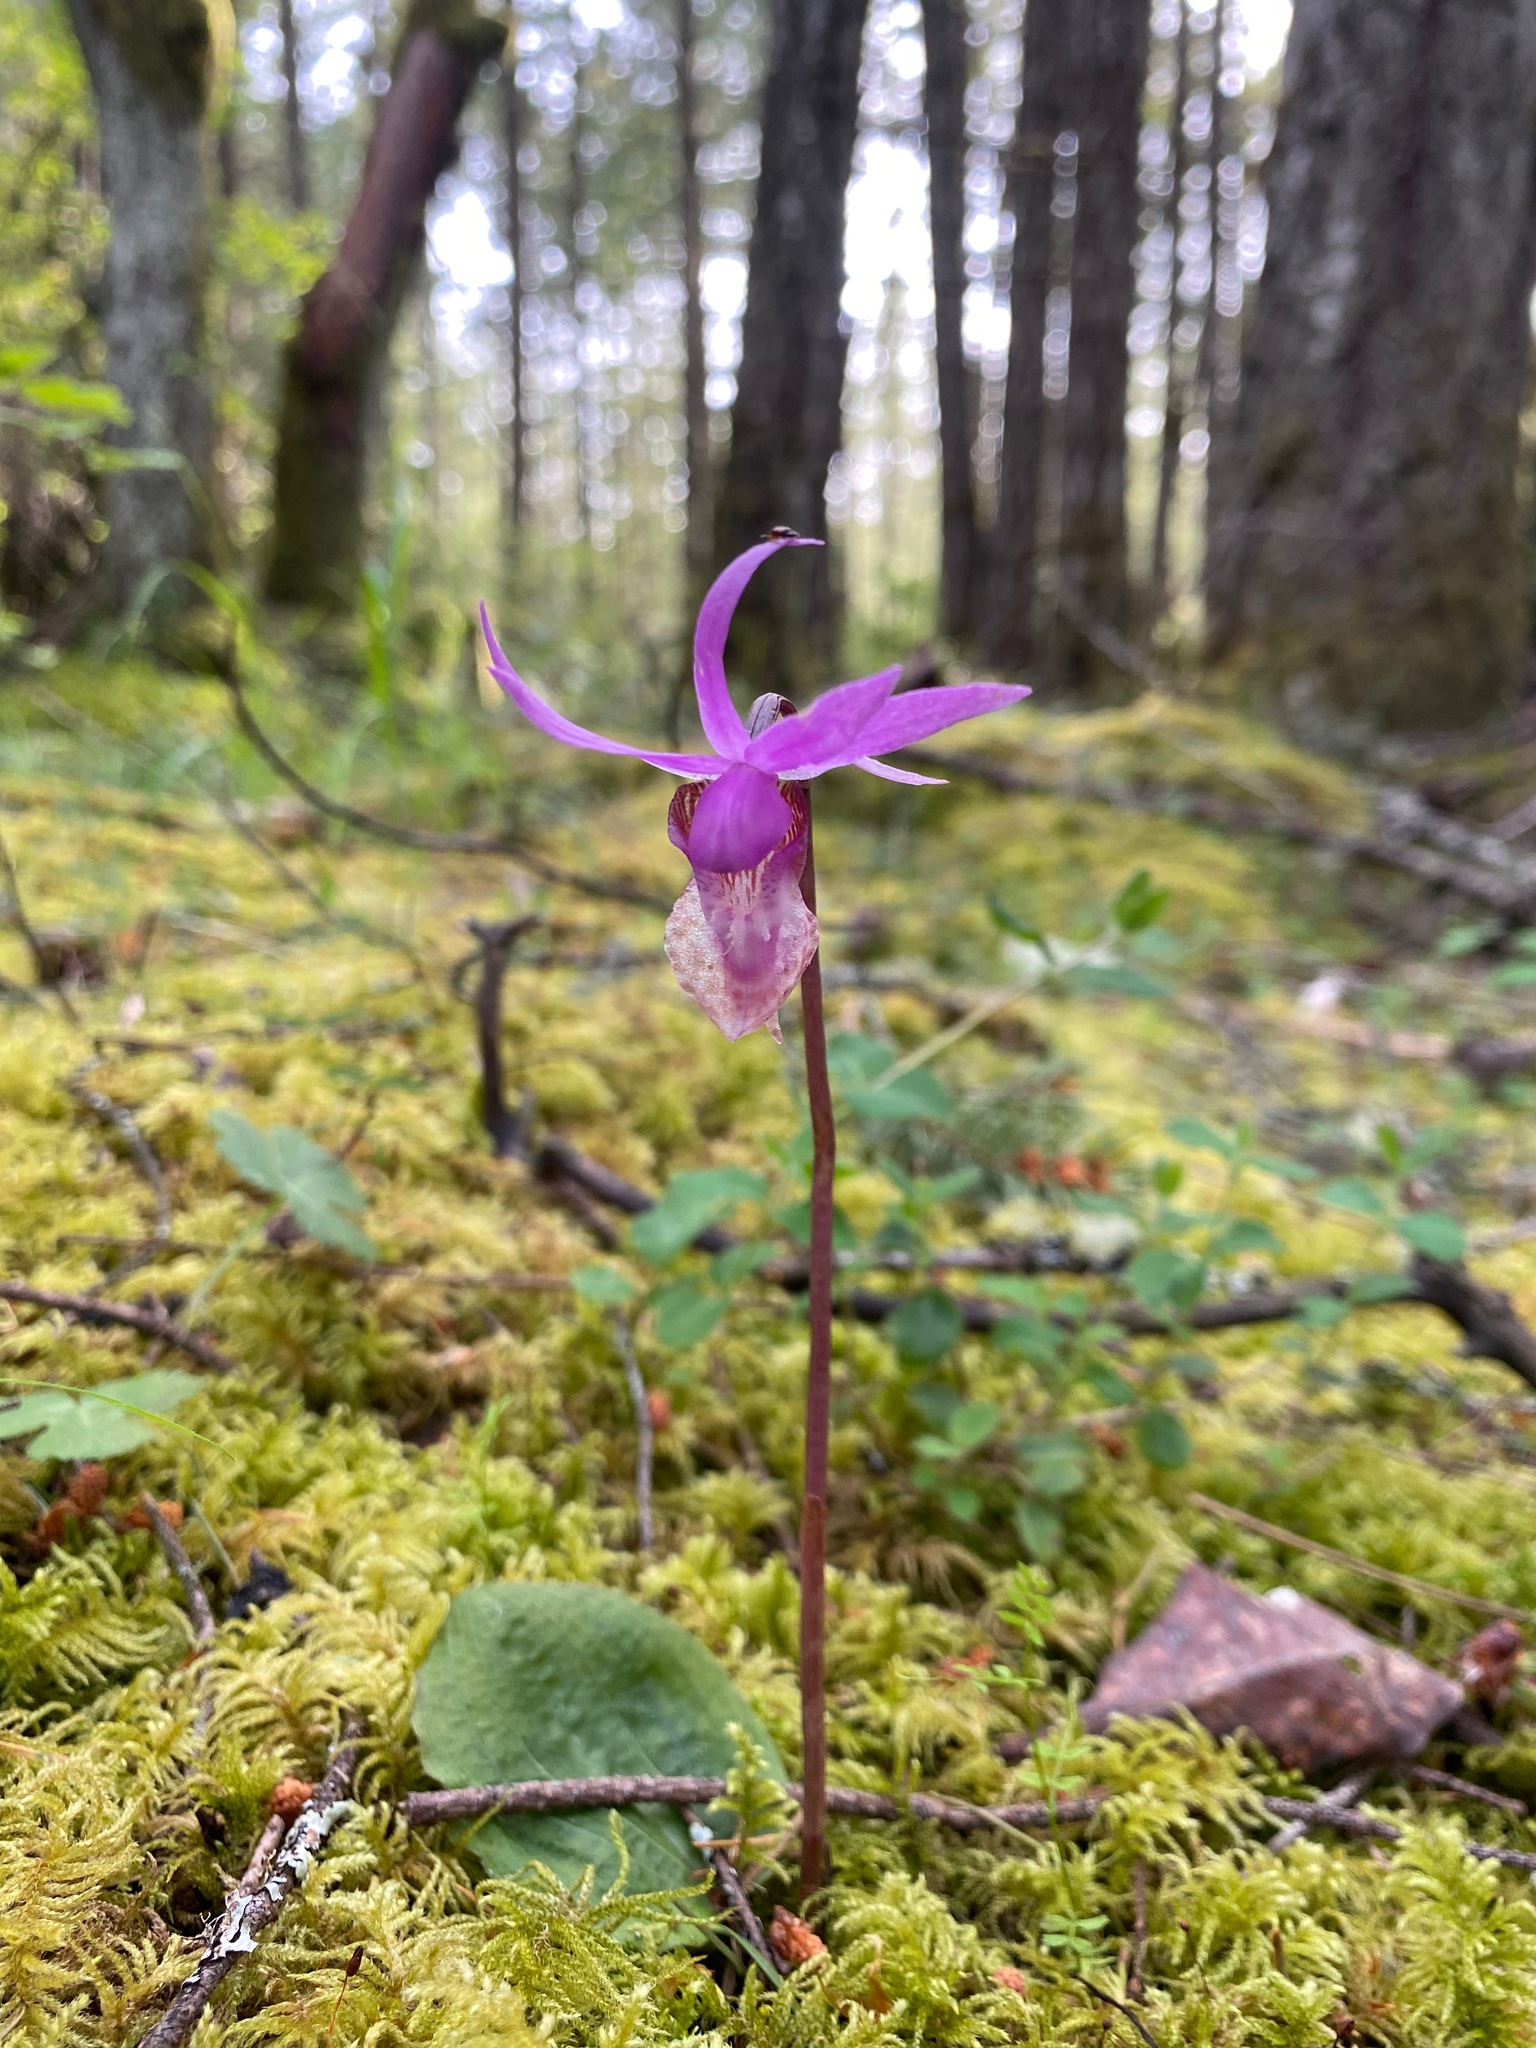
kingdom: Plantae
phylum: Tracheophyta
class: Liliopsida
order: Asparagales
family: Orchidaceae
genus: Calypso
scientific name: Calypso bulbosa
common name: Calypso
